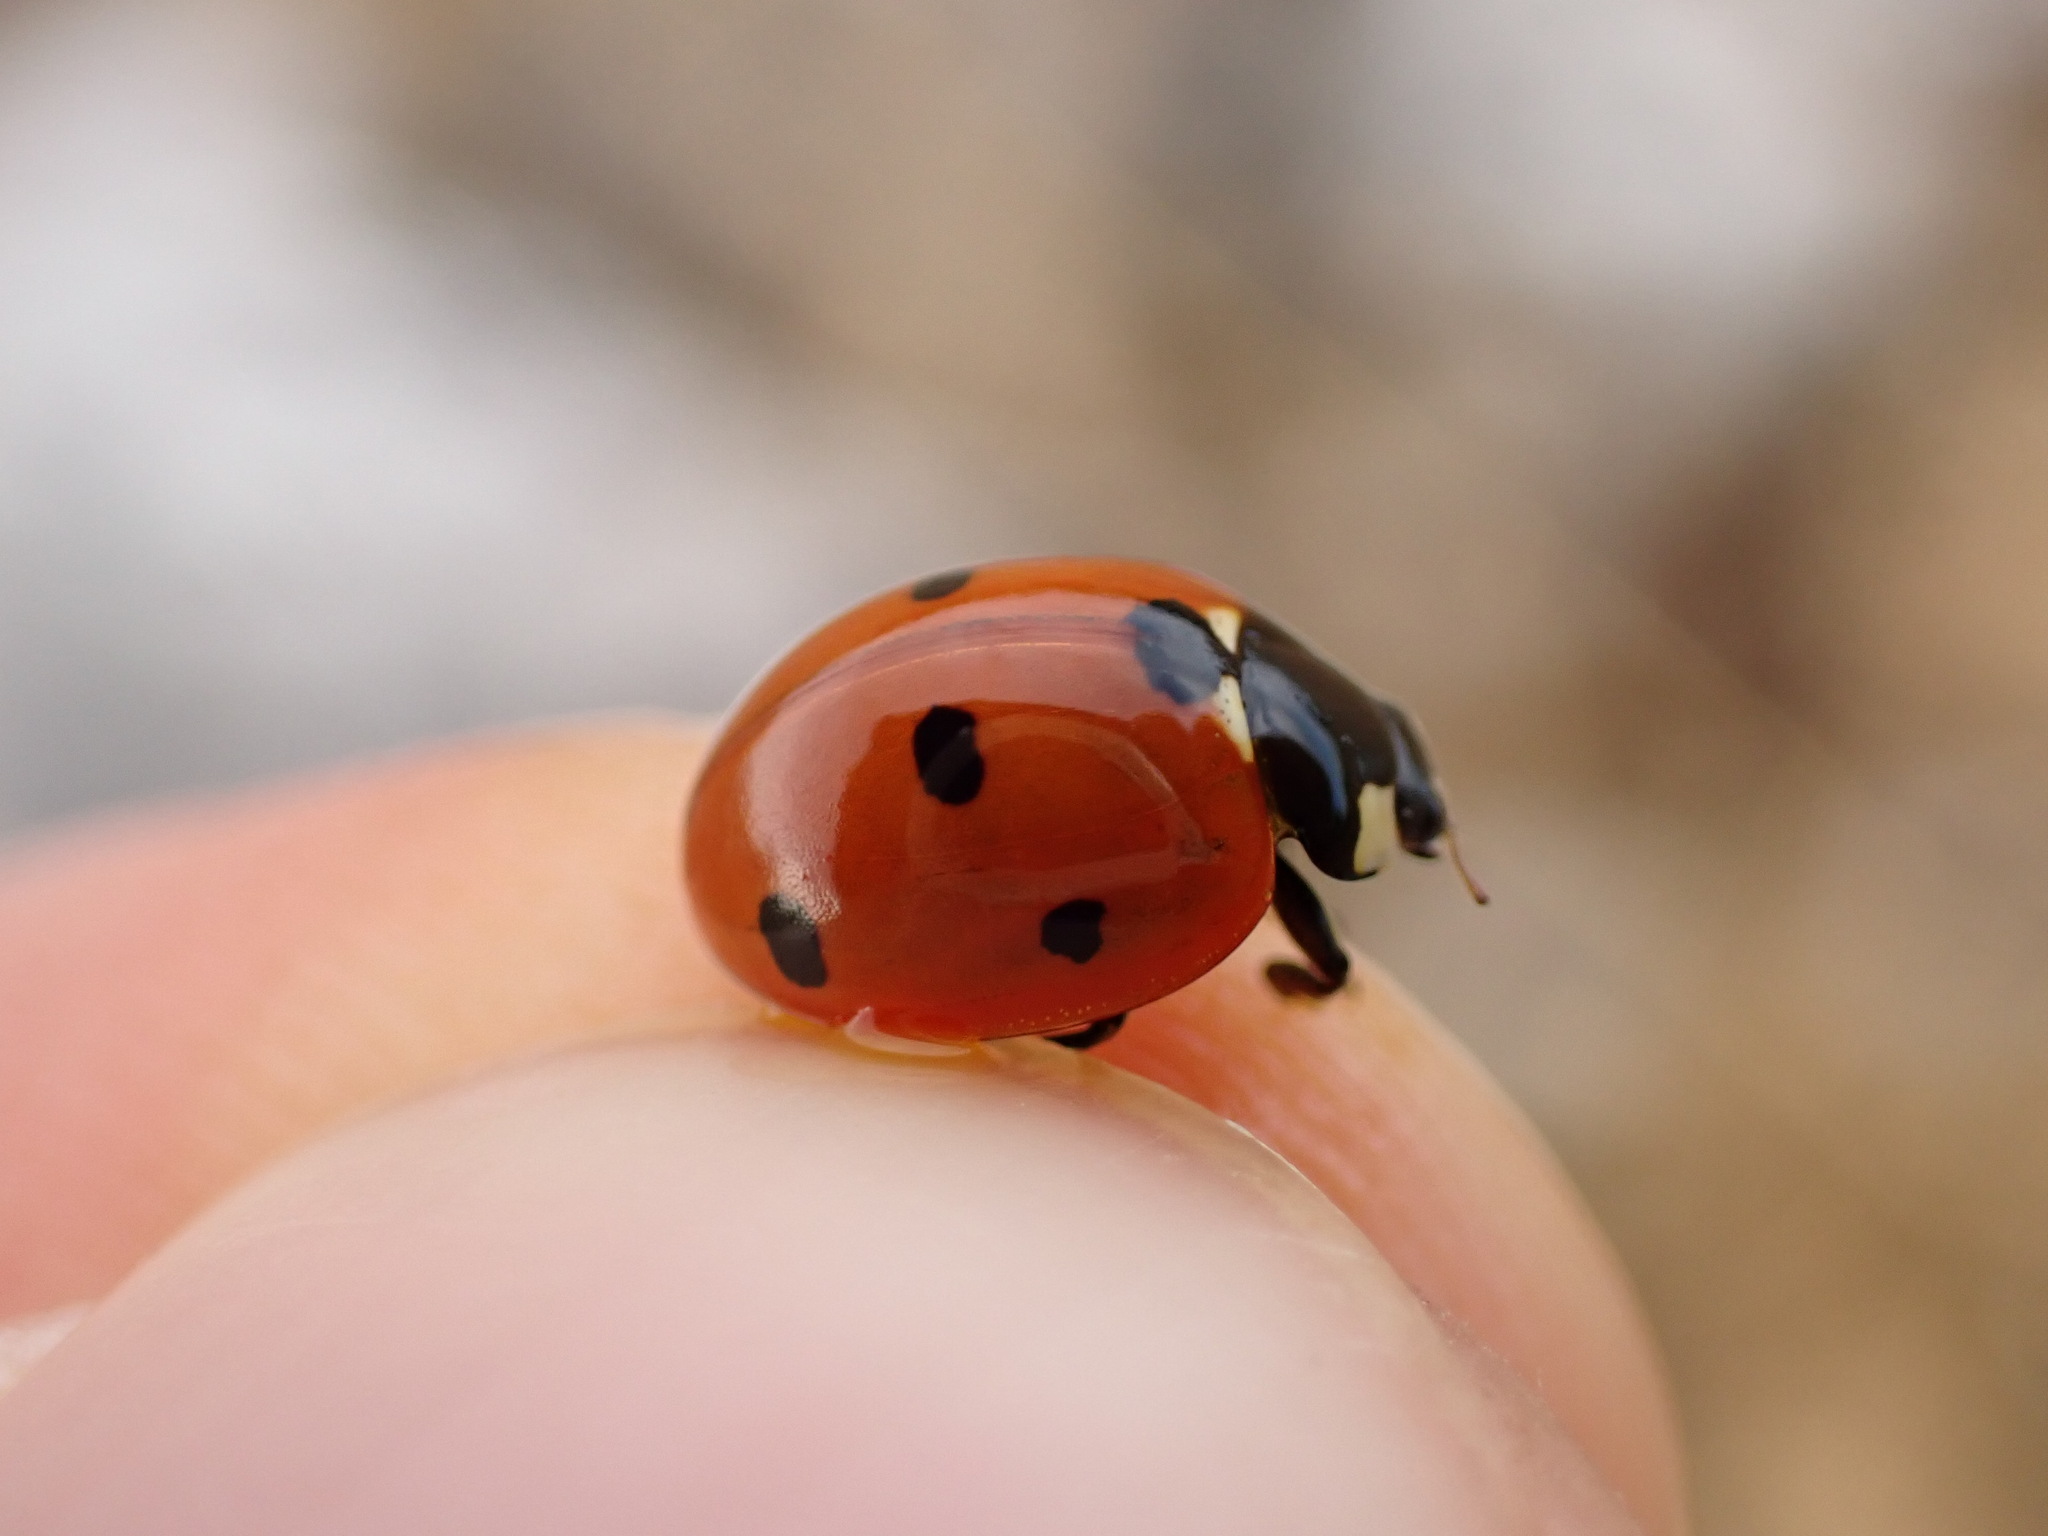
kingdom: Animalia
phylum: Arthropoda
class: Insecta
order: Coleoptera
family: Coccinellidae
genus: Coccinella
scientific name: Coccinella septempunctata
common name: Sevenspotted lady beetle
